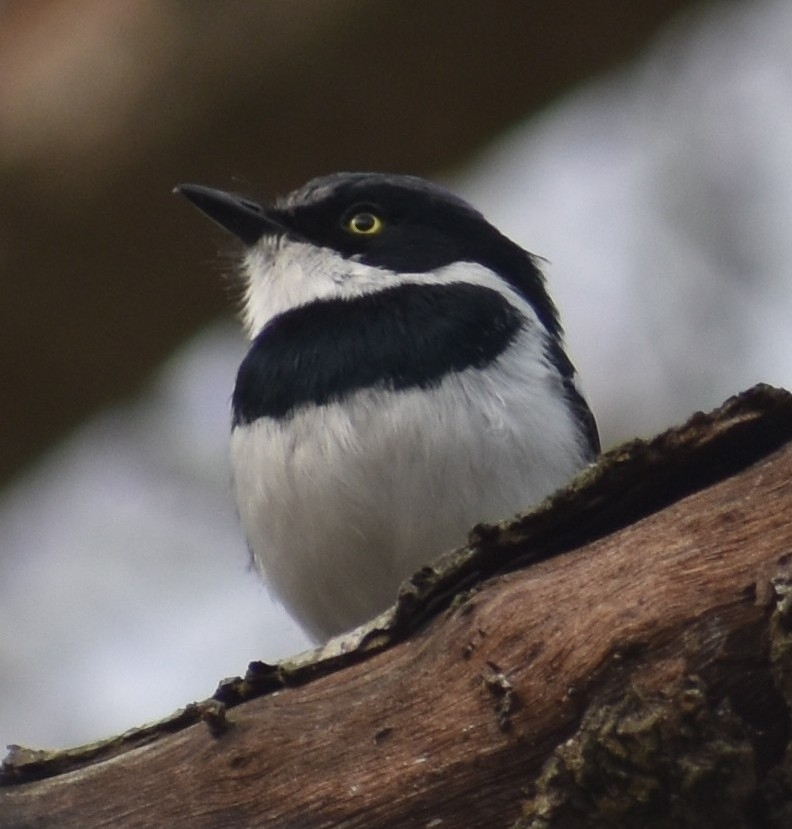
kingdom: Animalia
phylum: Chordata
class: Aves
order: Passeriformes
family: Platysteiridae
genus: Batis
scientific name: Batis molitor
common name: Chinspot batis
